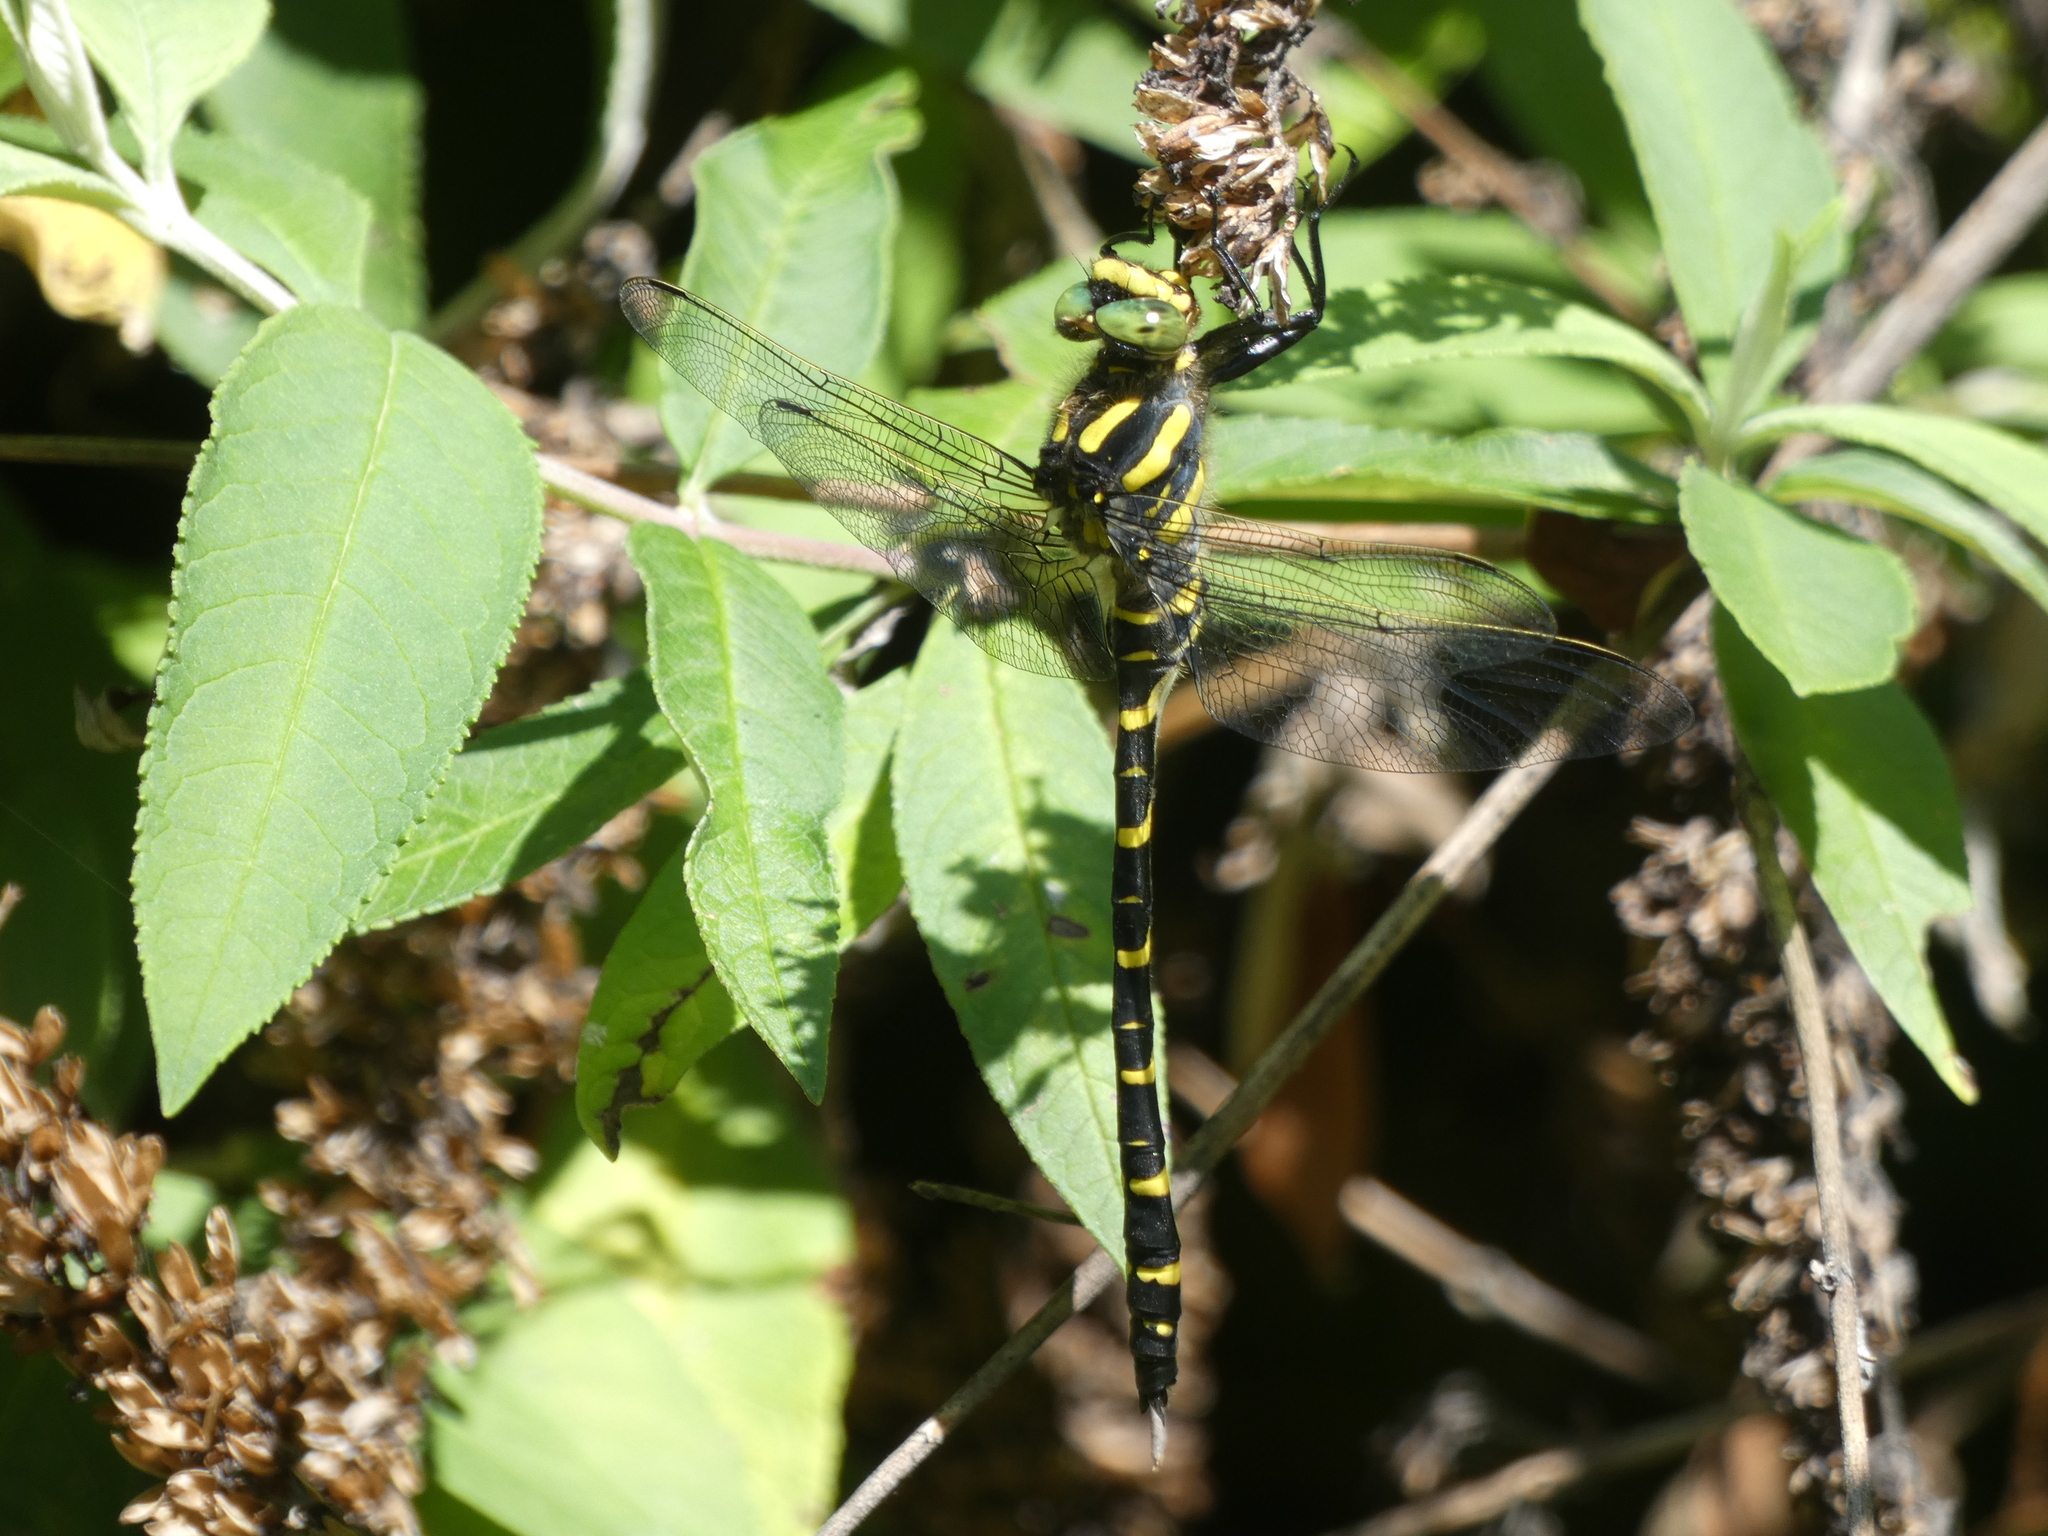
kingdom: Animalia
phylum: Arthropoda
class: Insecta
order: Odonata
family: Cordulegastridae
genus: Cordulegaster
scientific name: Cordulegaster boltonii
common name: Golden-ringed dragonfly
